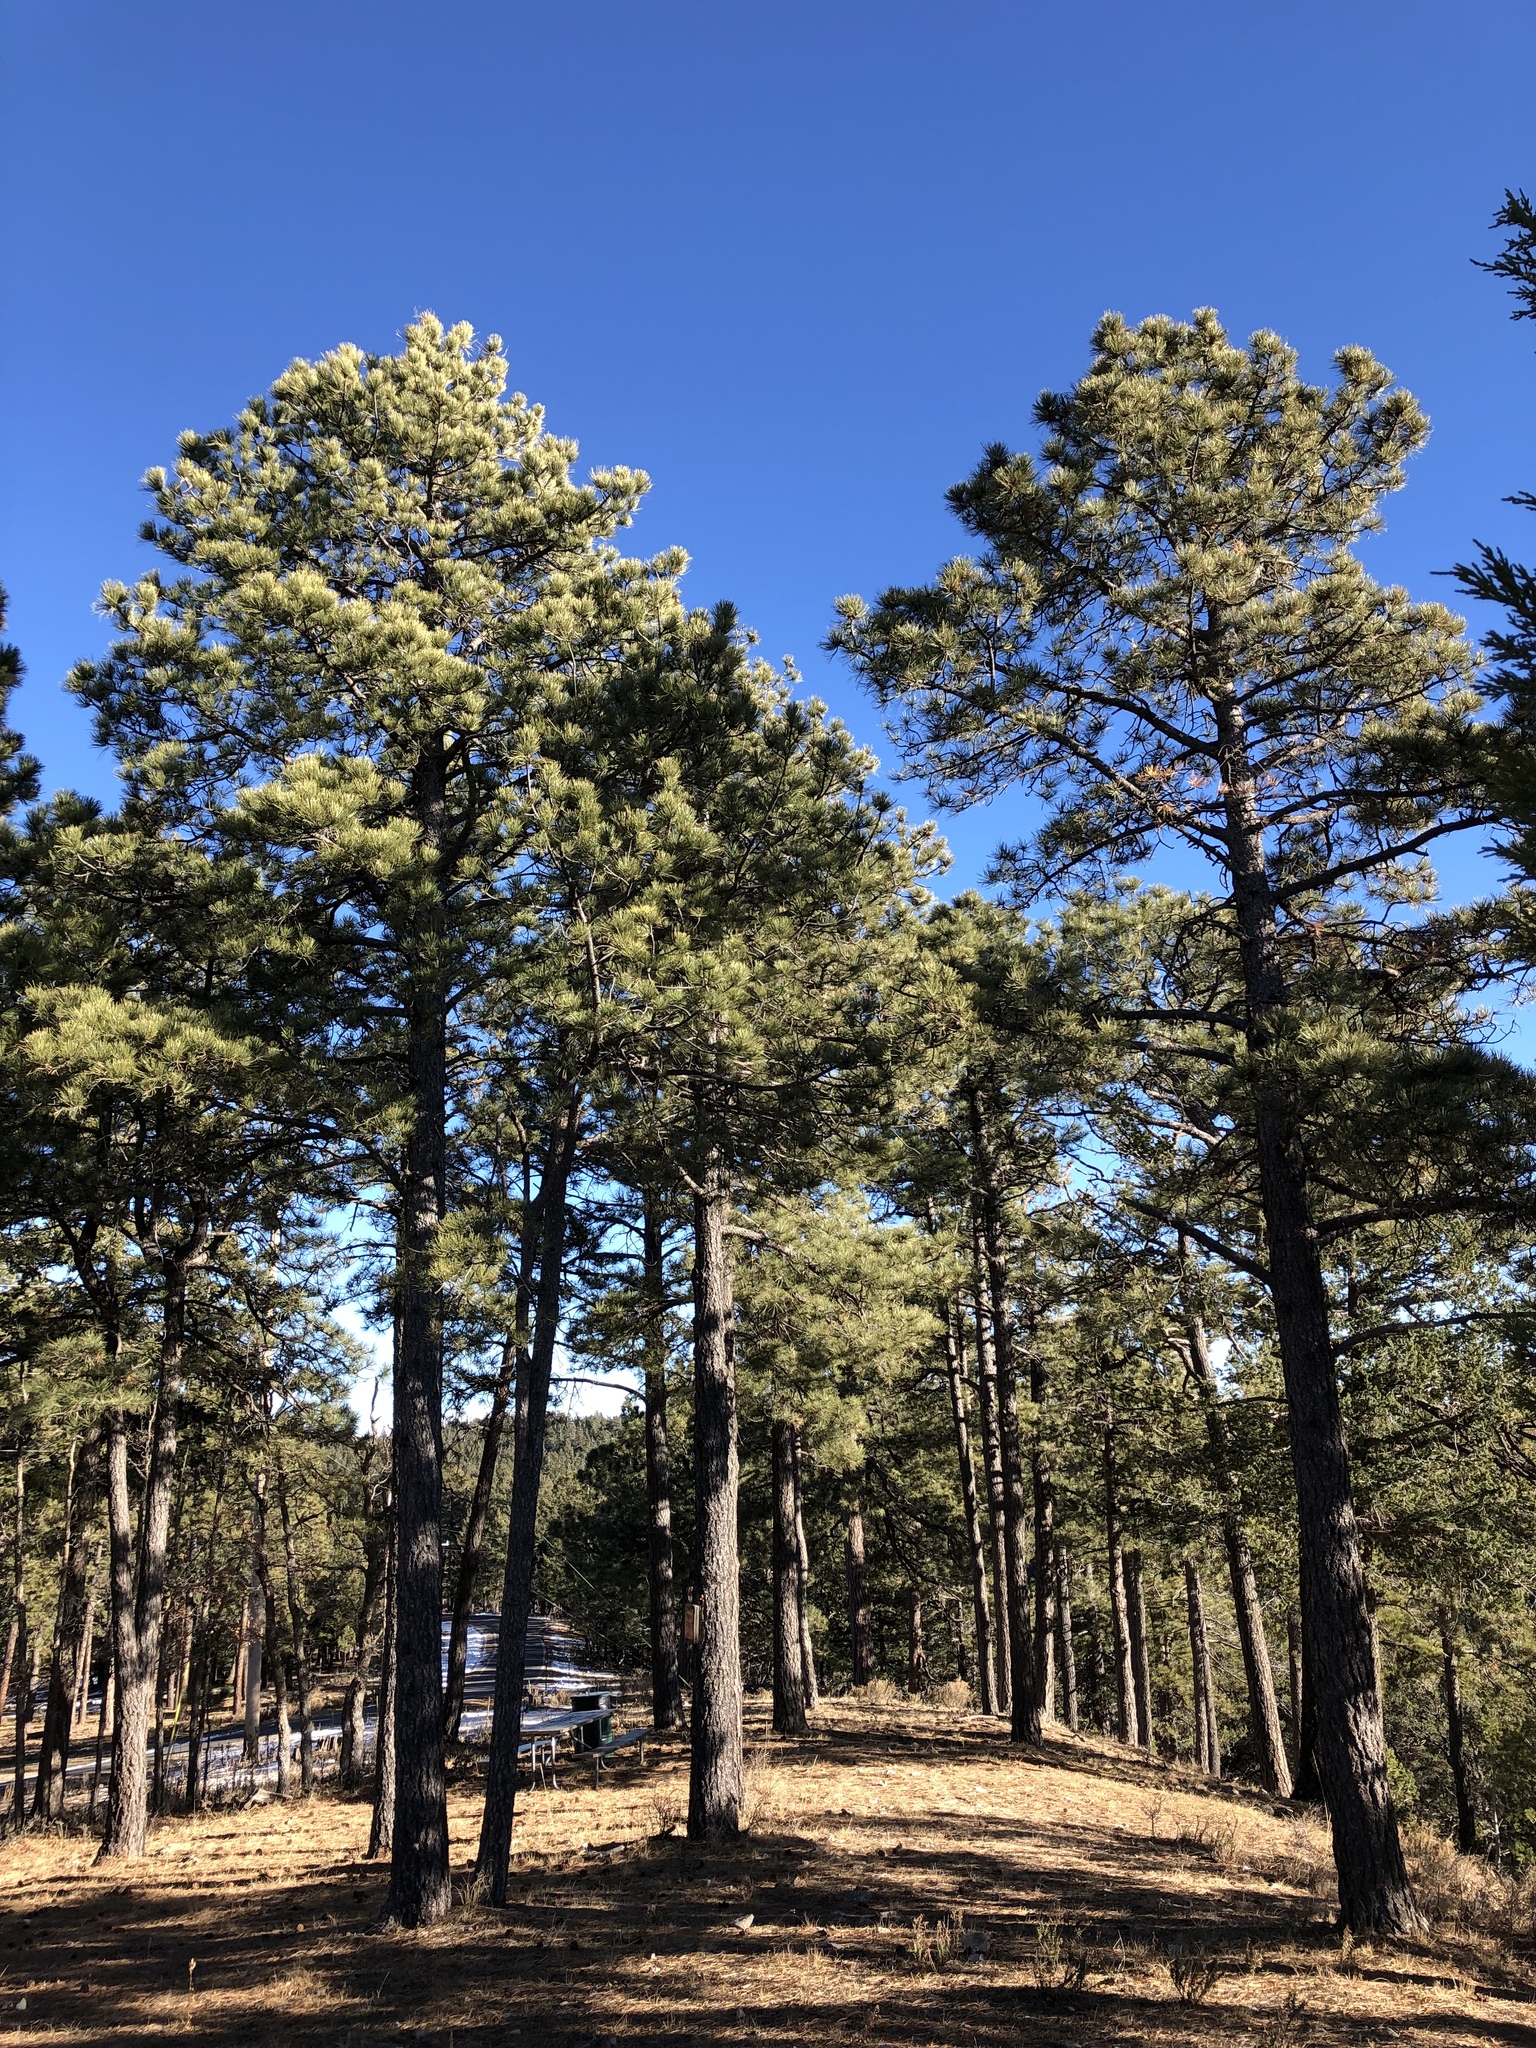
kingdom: Plantae
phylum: Tracheophyta
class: Pinopsida
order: Pinales
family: Pinaceae
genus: Pinus
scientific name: Pinus ponderosa
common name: Western yellow-pine
